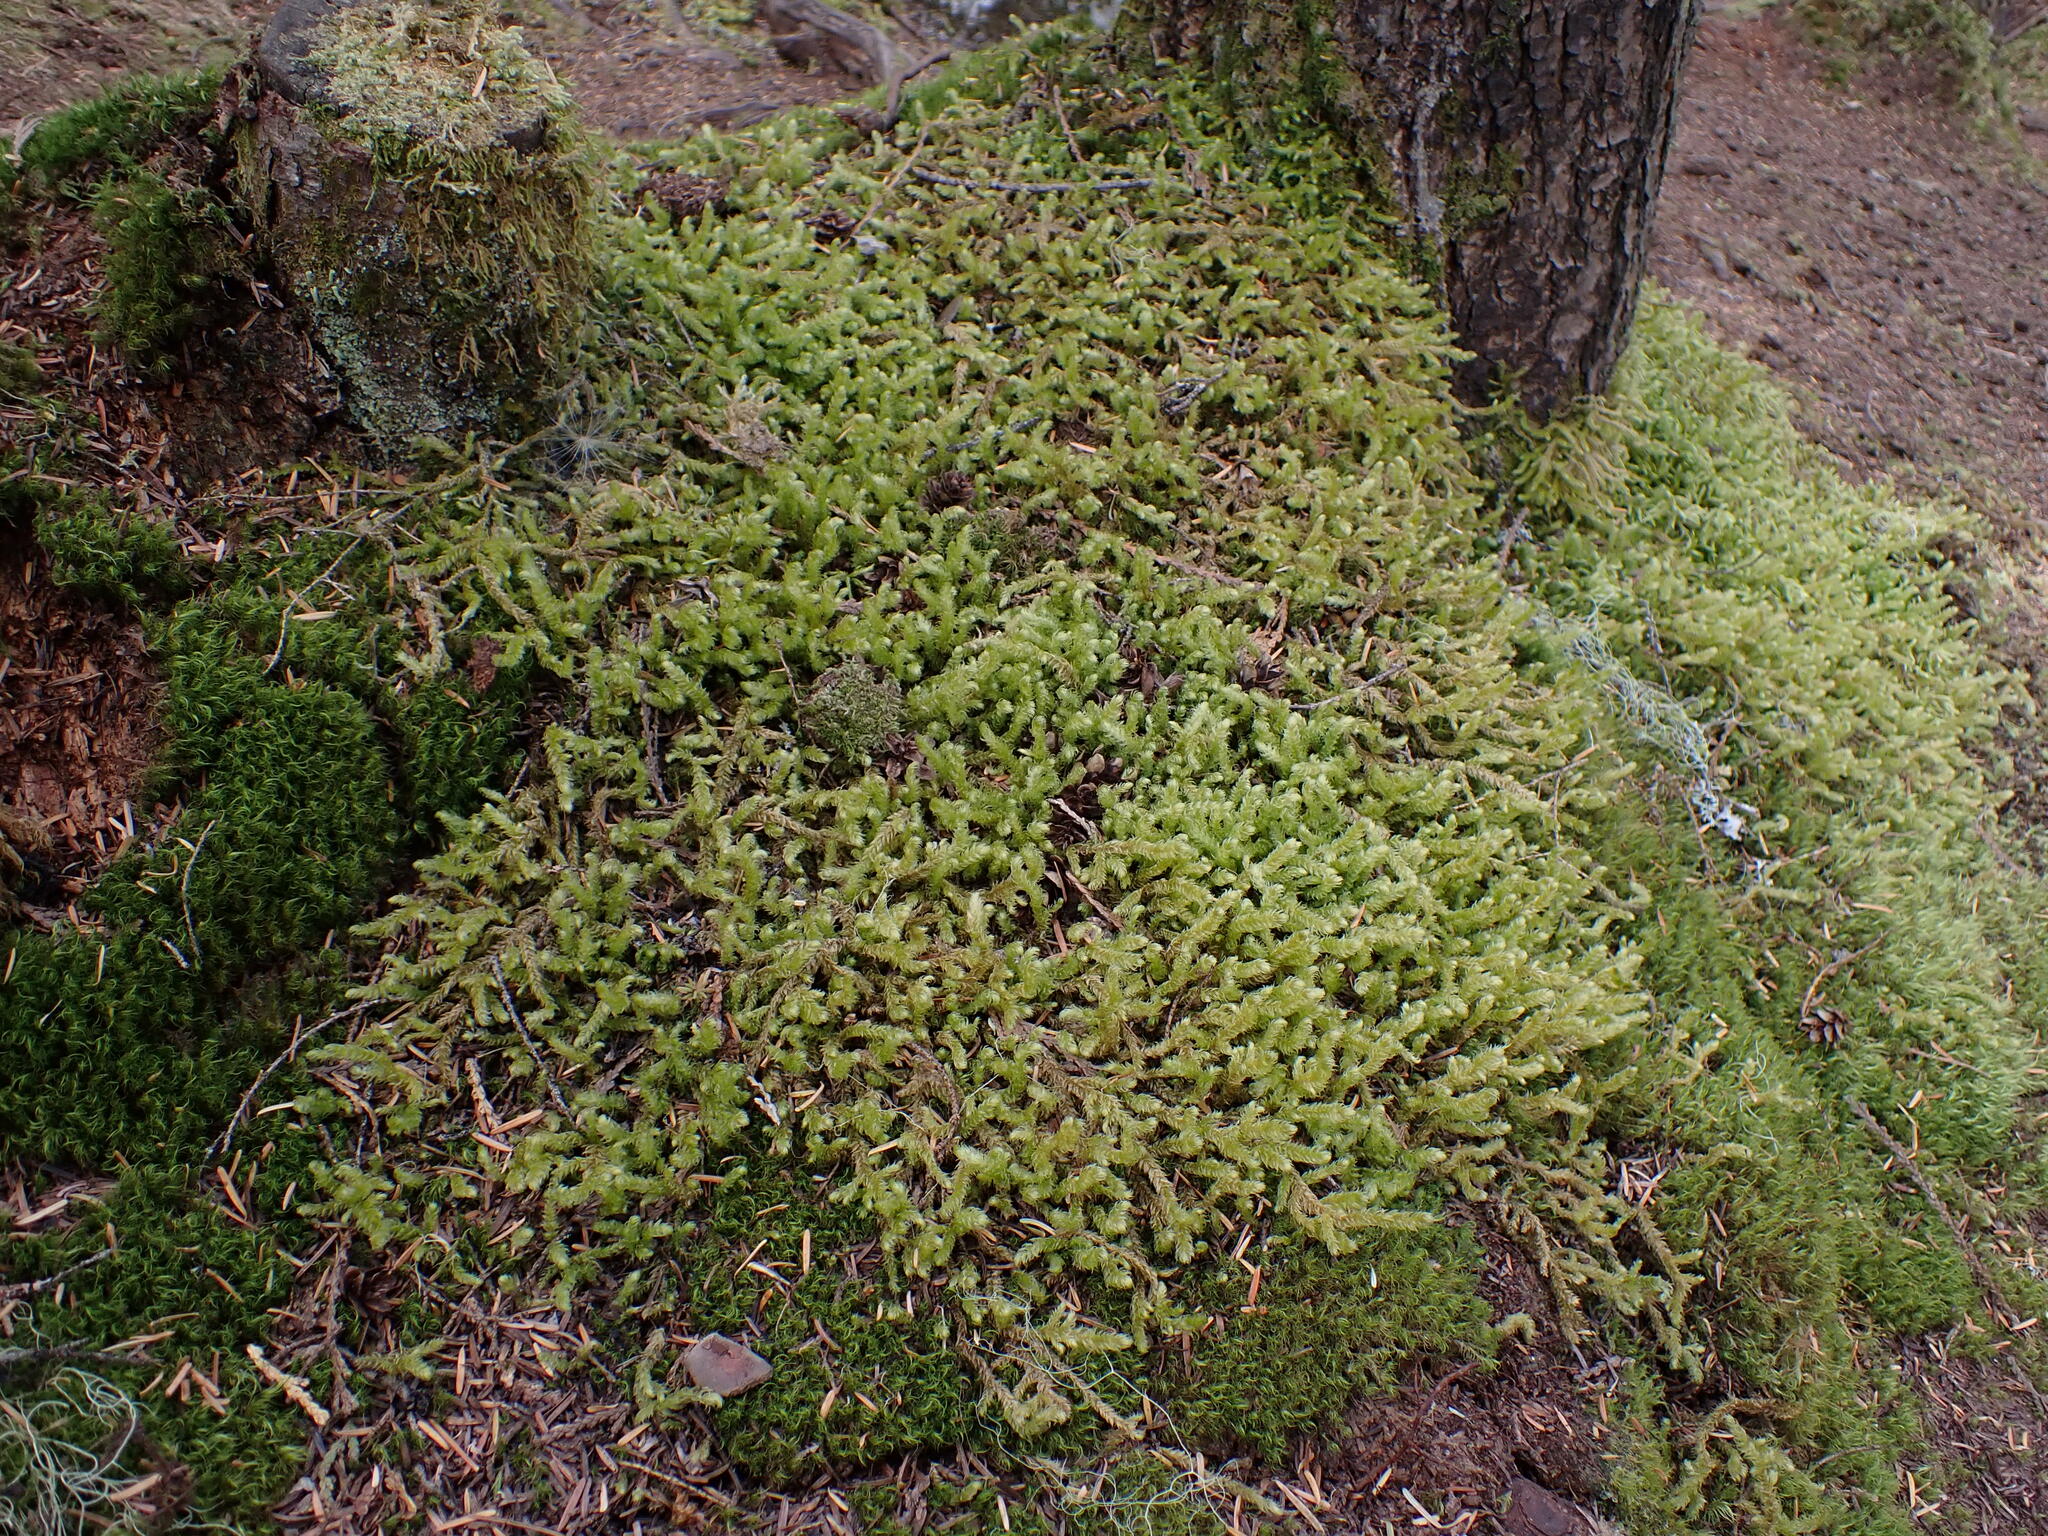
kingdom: Plantae
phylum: Bryophyta
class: Bryopsida
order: Hypnales
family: Hylocomiaceae
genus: Rhytidiopsis
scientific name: Rhytidiopsis robusta
